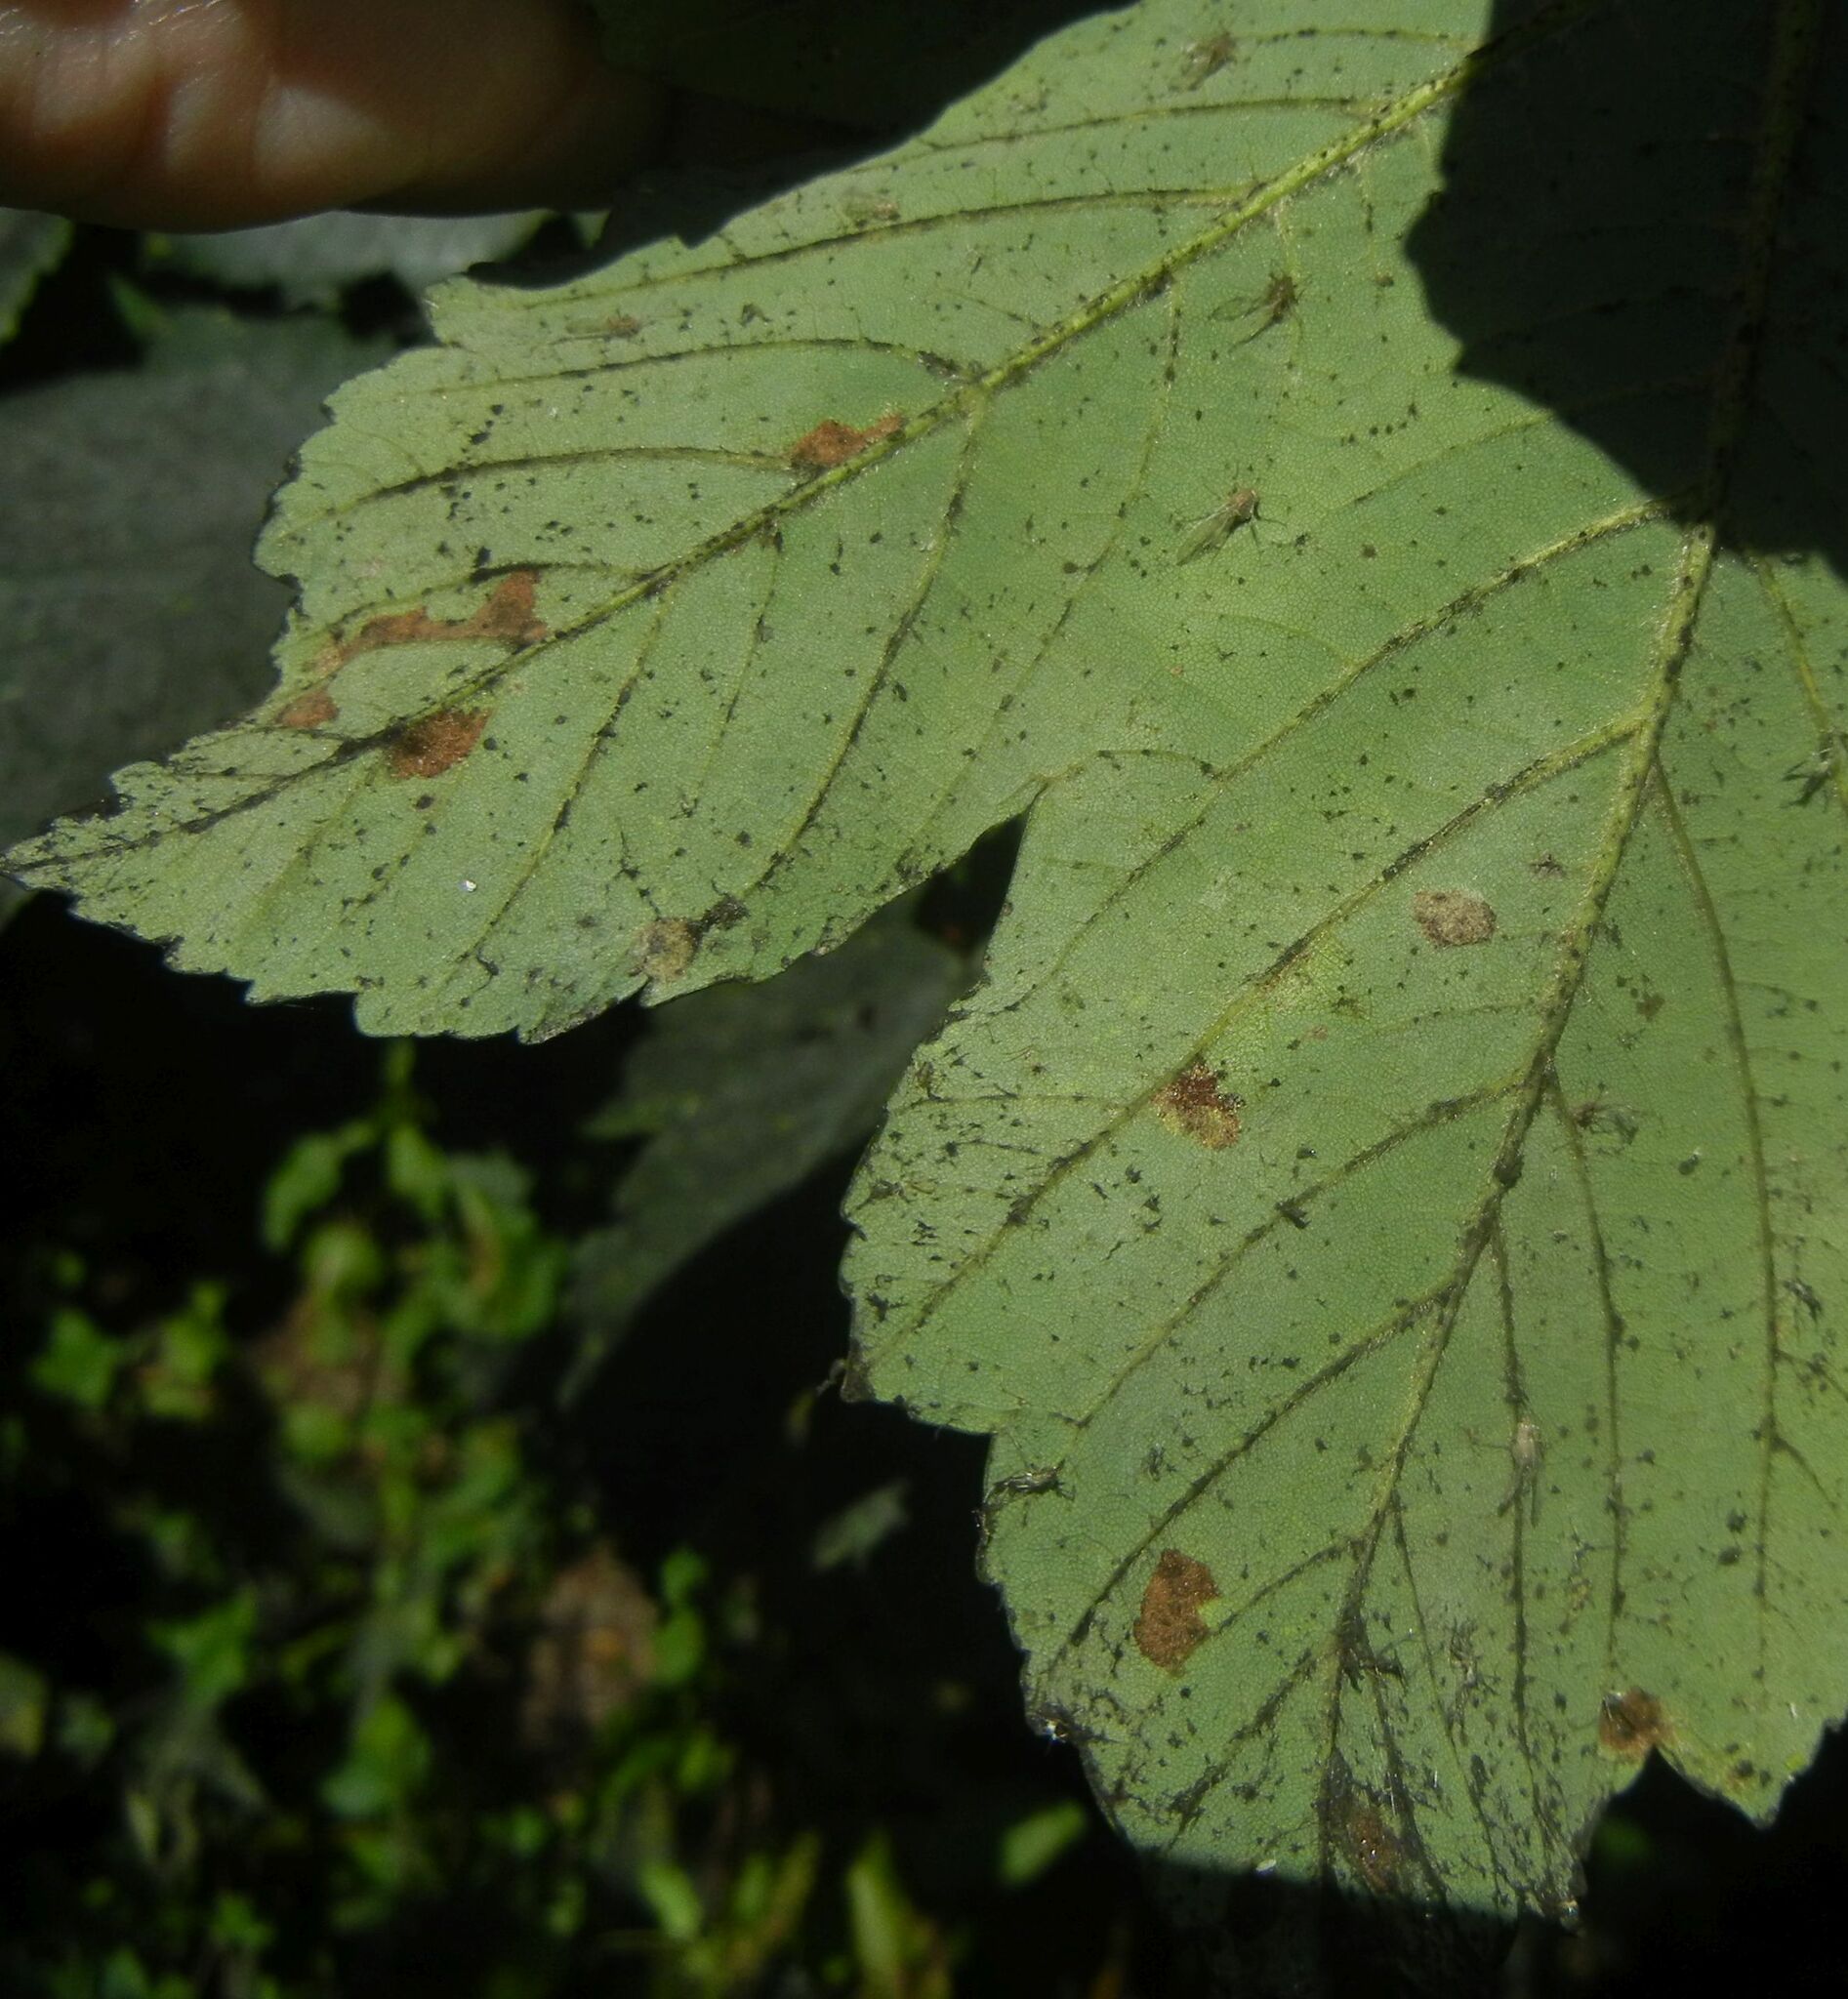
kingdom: Animalia
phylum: Arthropoda
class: Arachnida
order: Trombidiformes
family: Eriophyidae
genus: Aceria
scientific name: Aceria pseudoplatani
